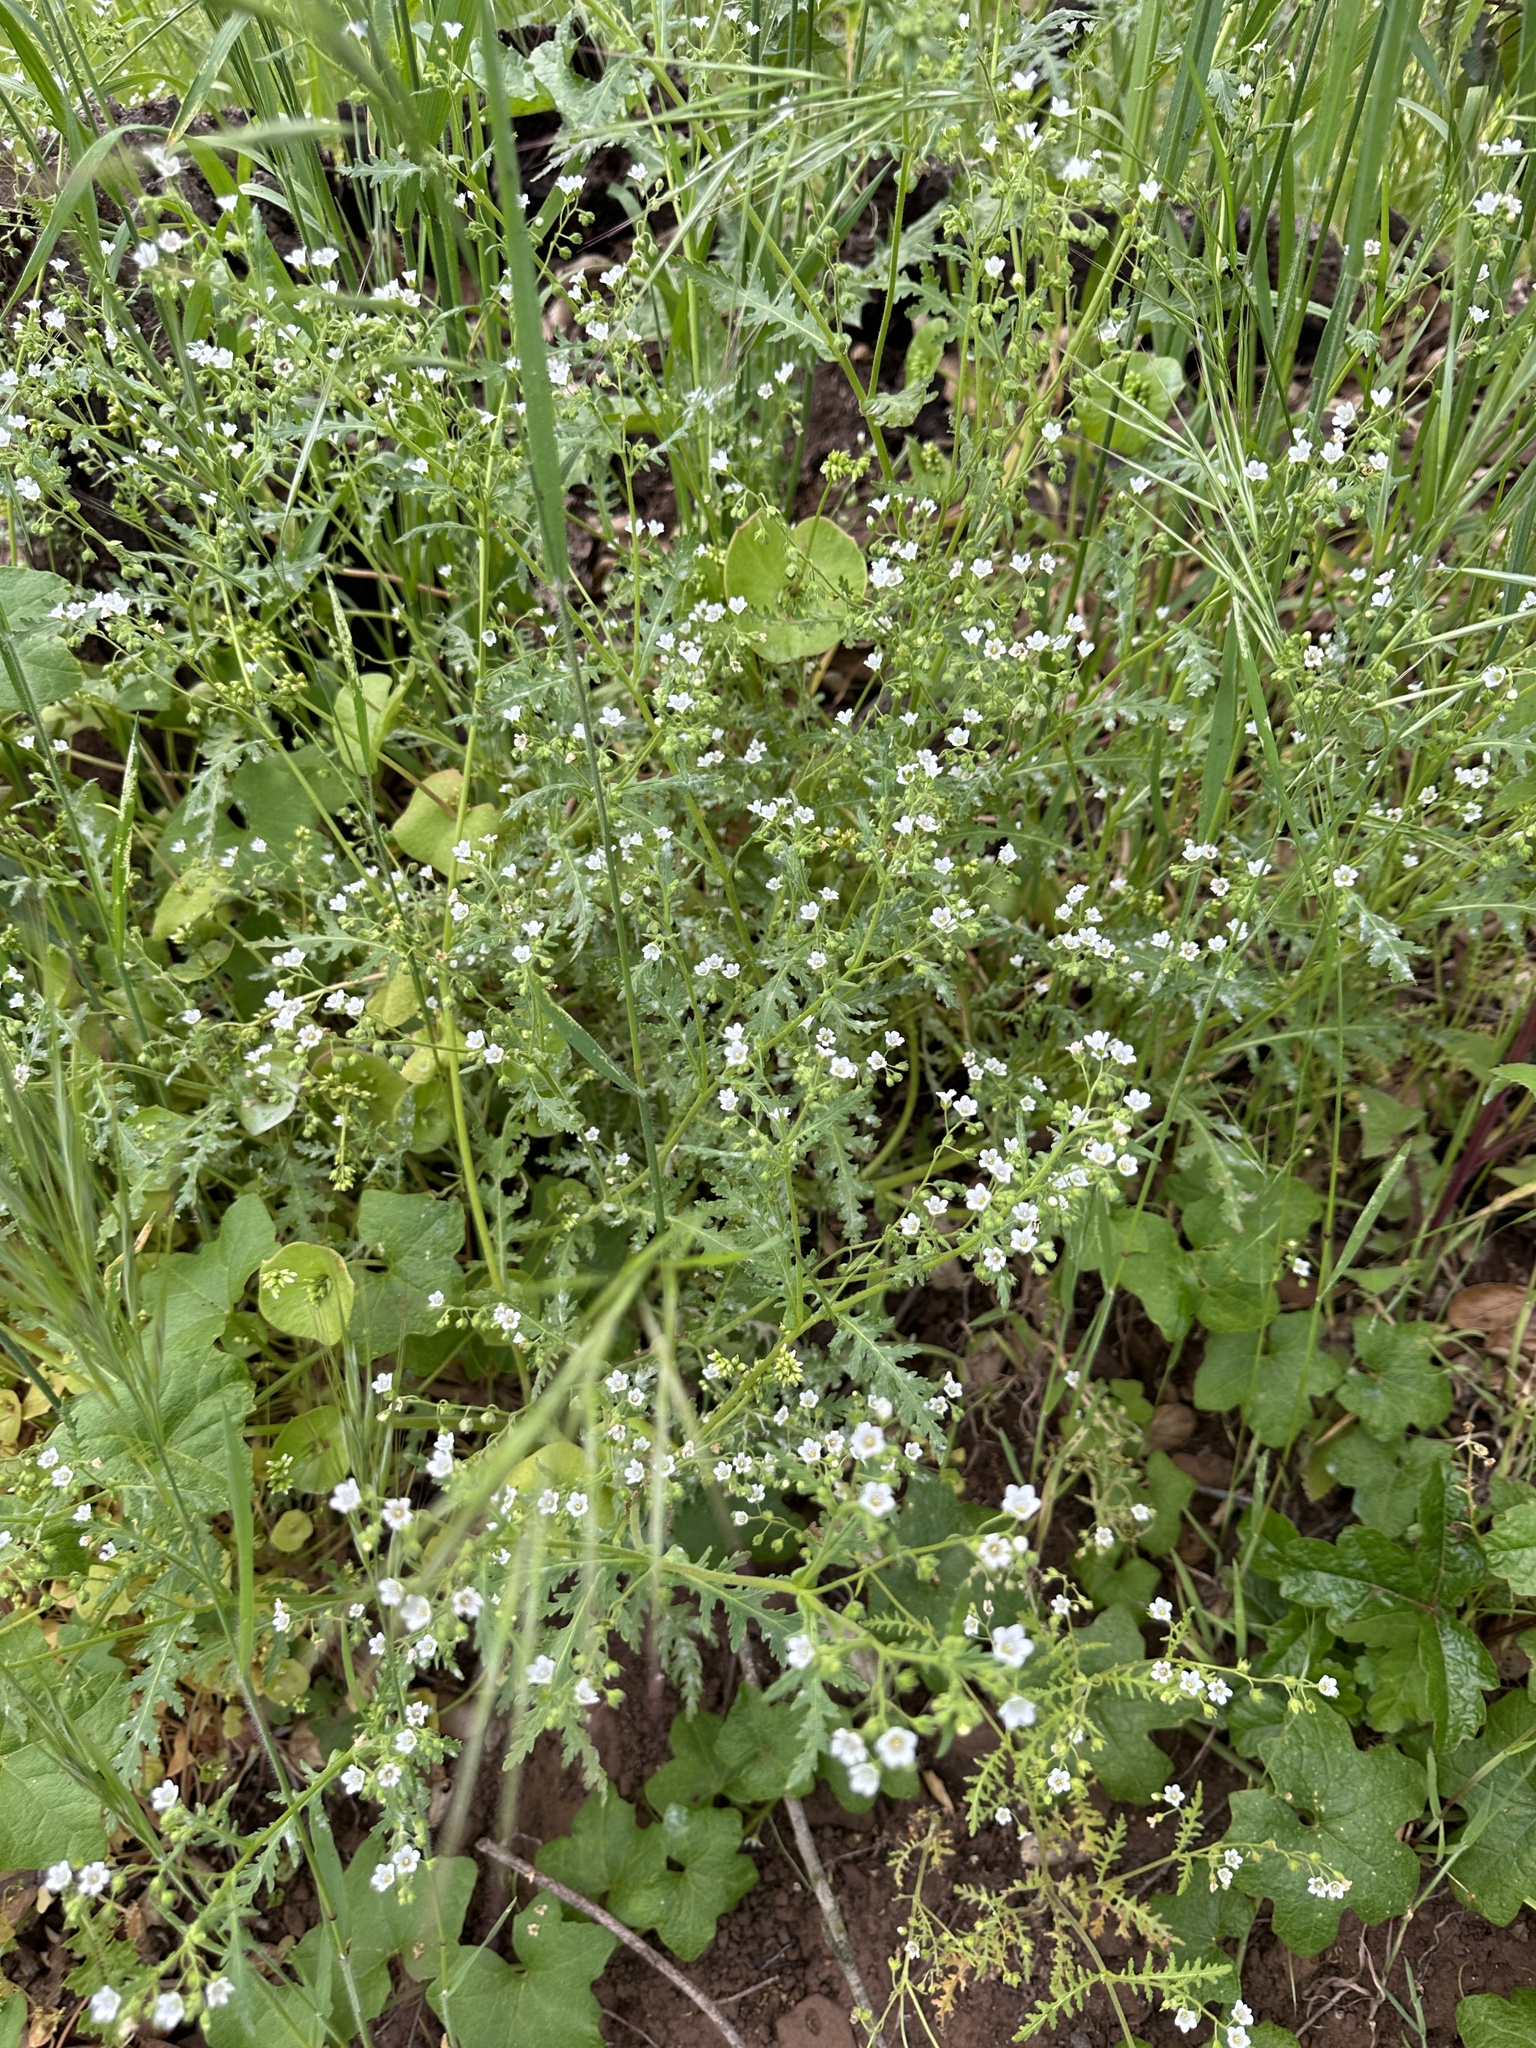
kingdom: Plantae
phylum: Tracheophyta
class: Magnoliopsida
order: Boraginales
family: Hydrophyllaceae
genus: Eucrypta
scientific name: Eucrypta chrysanthemifolia
